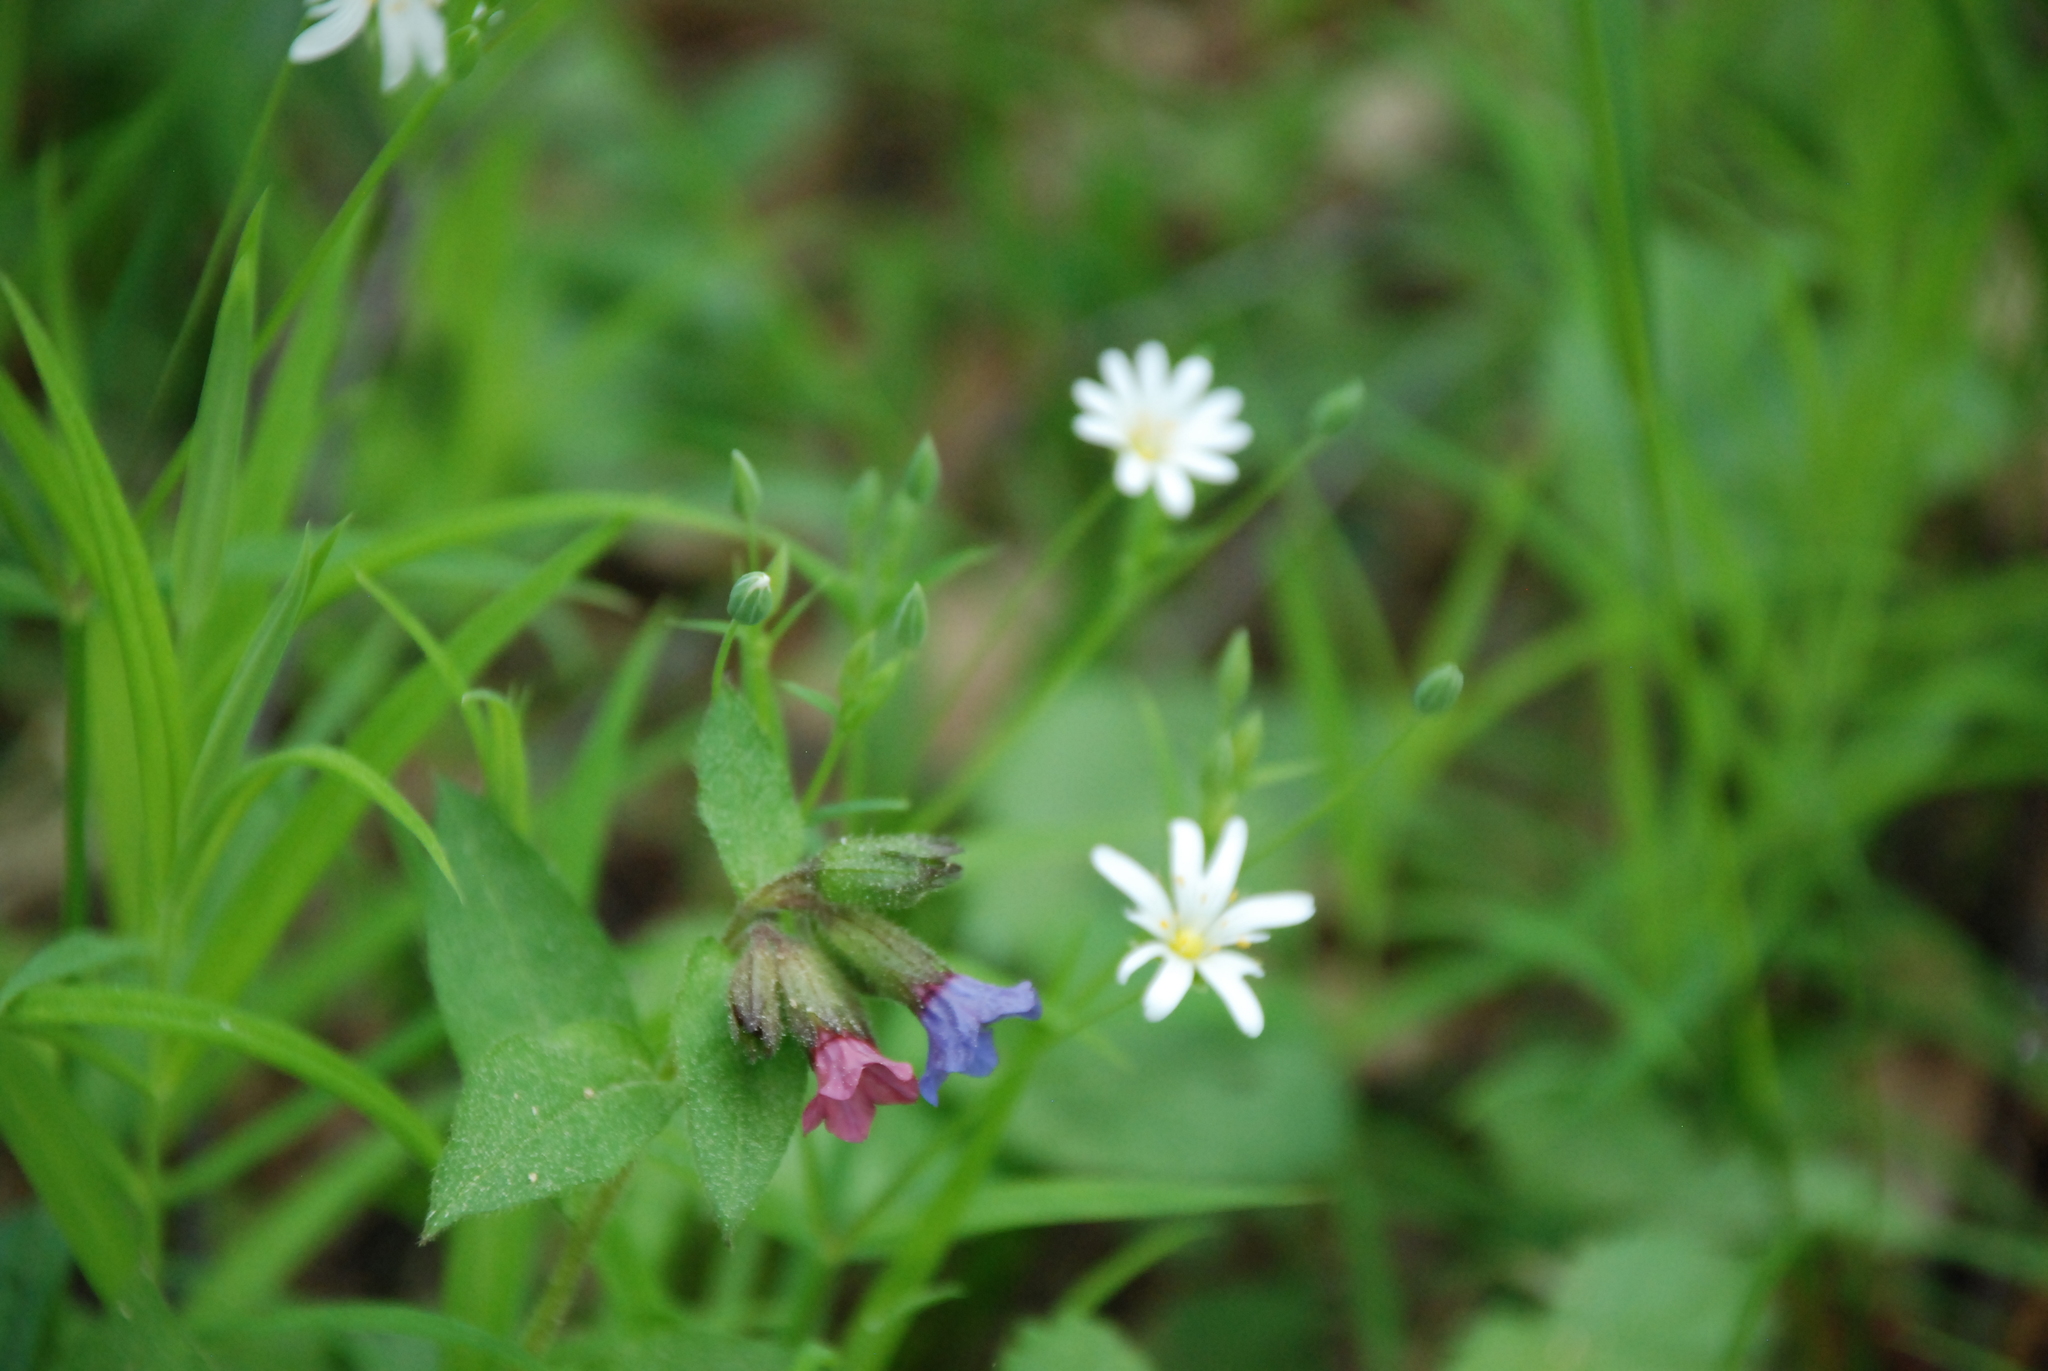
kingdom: Plantae
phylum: Tracheophyta
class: Magnoliopsida
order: Boraginales
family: Boraginaceae
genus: Pulmonaria
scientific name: Pulmonaria obscura
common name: Suffolk lungwort
